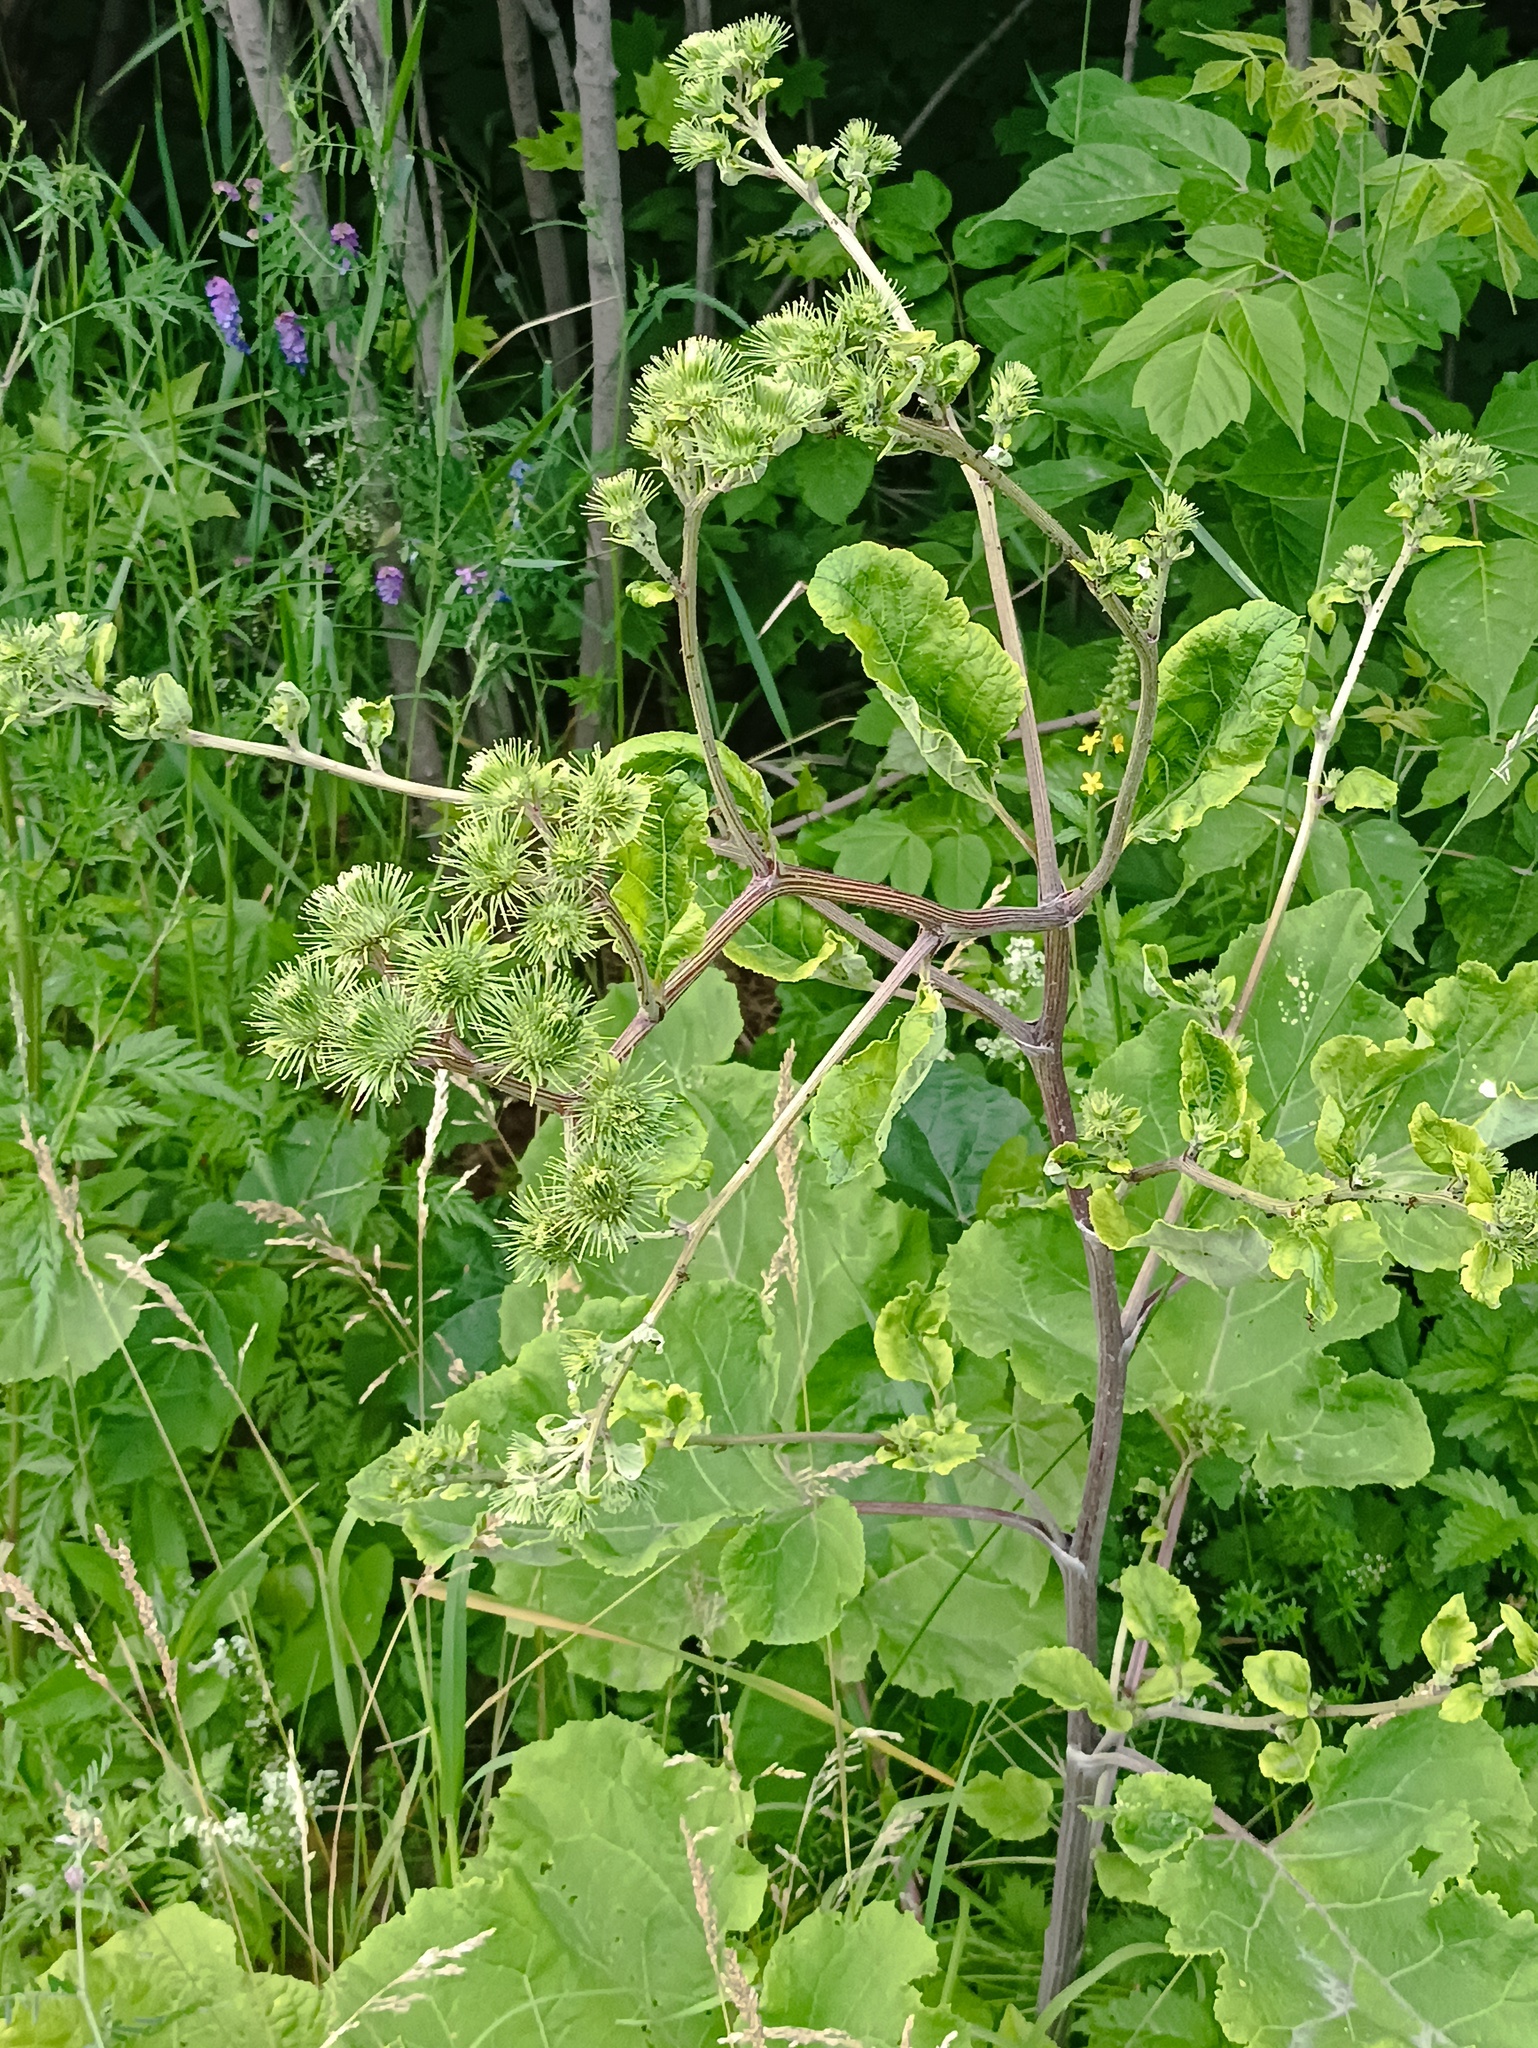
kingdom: Plantae
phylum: Tracheophyta
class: Magnoliopsida
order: Asterales
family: Asteraceae
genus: Arctium
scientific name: Arctium lappa
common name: Greater burdock
